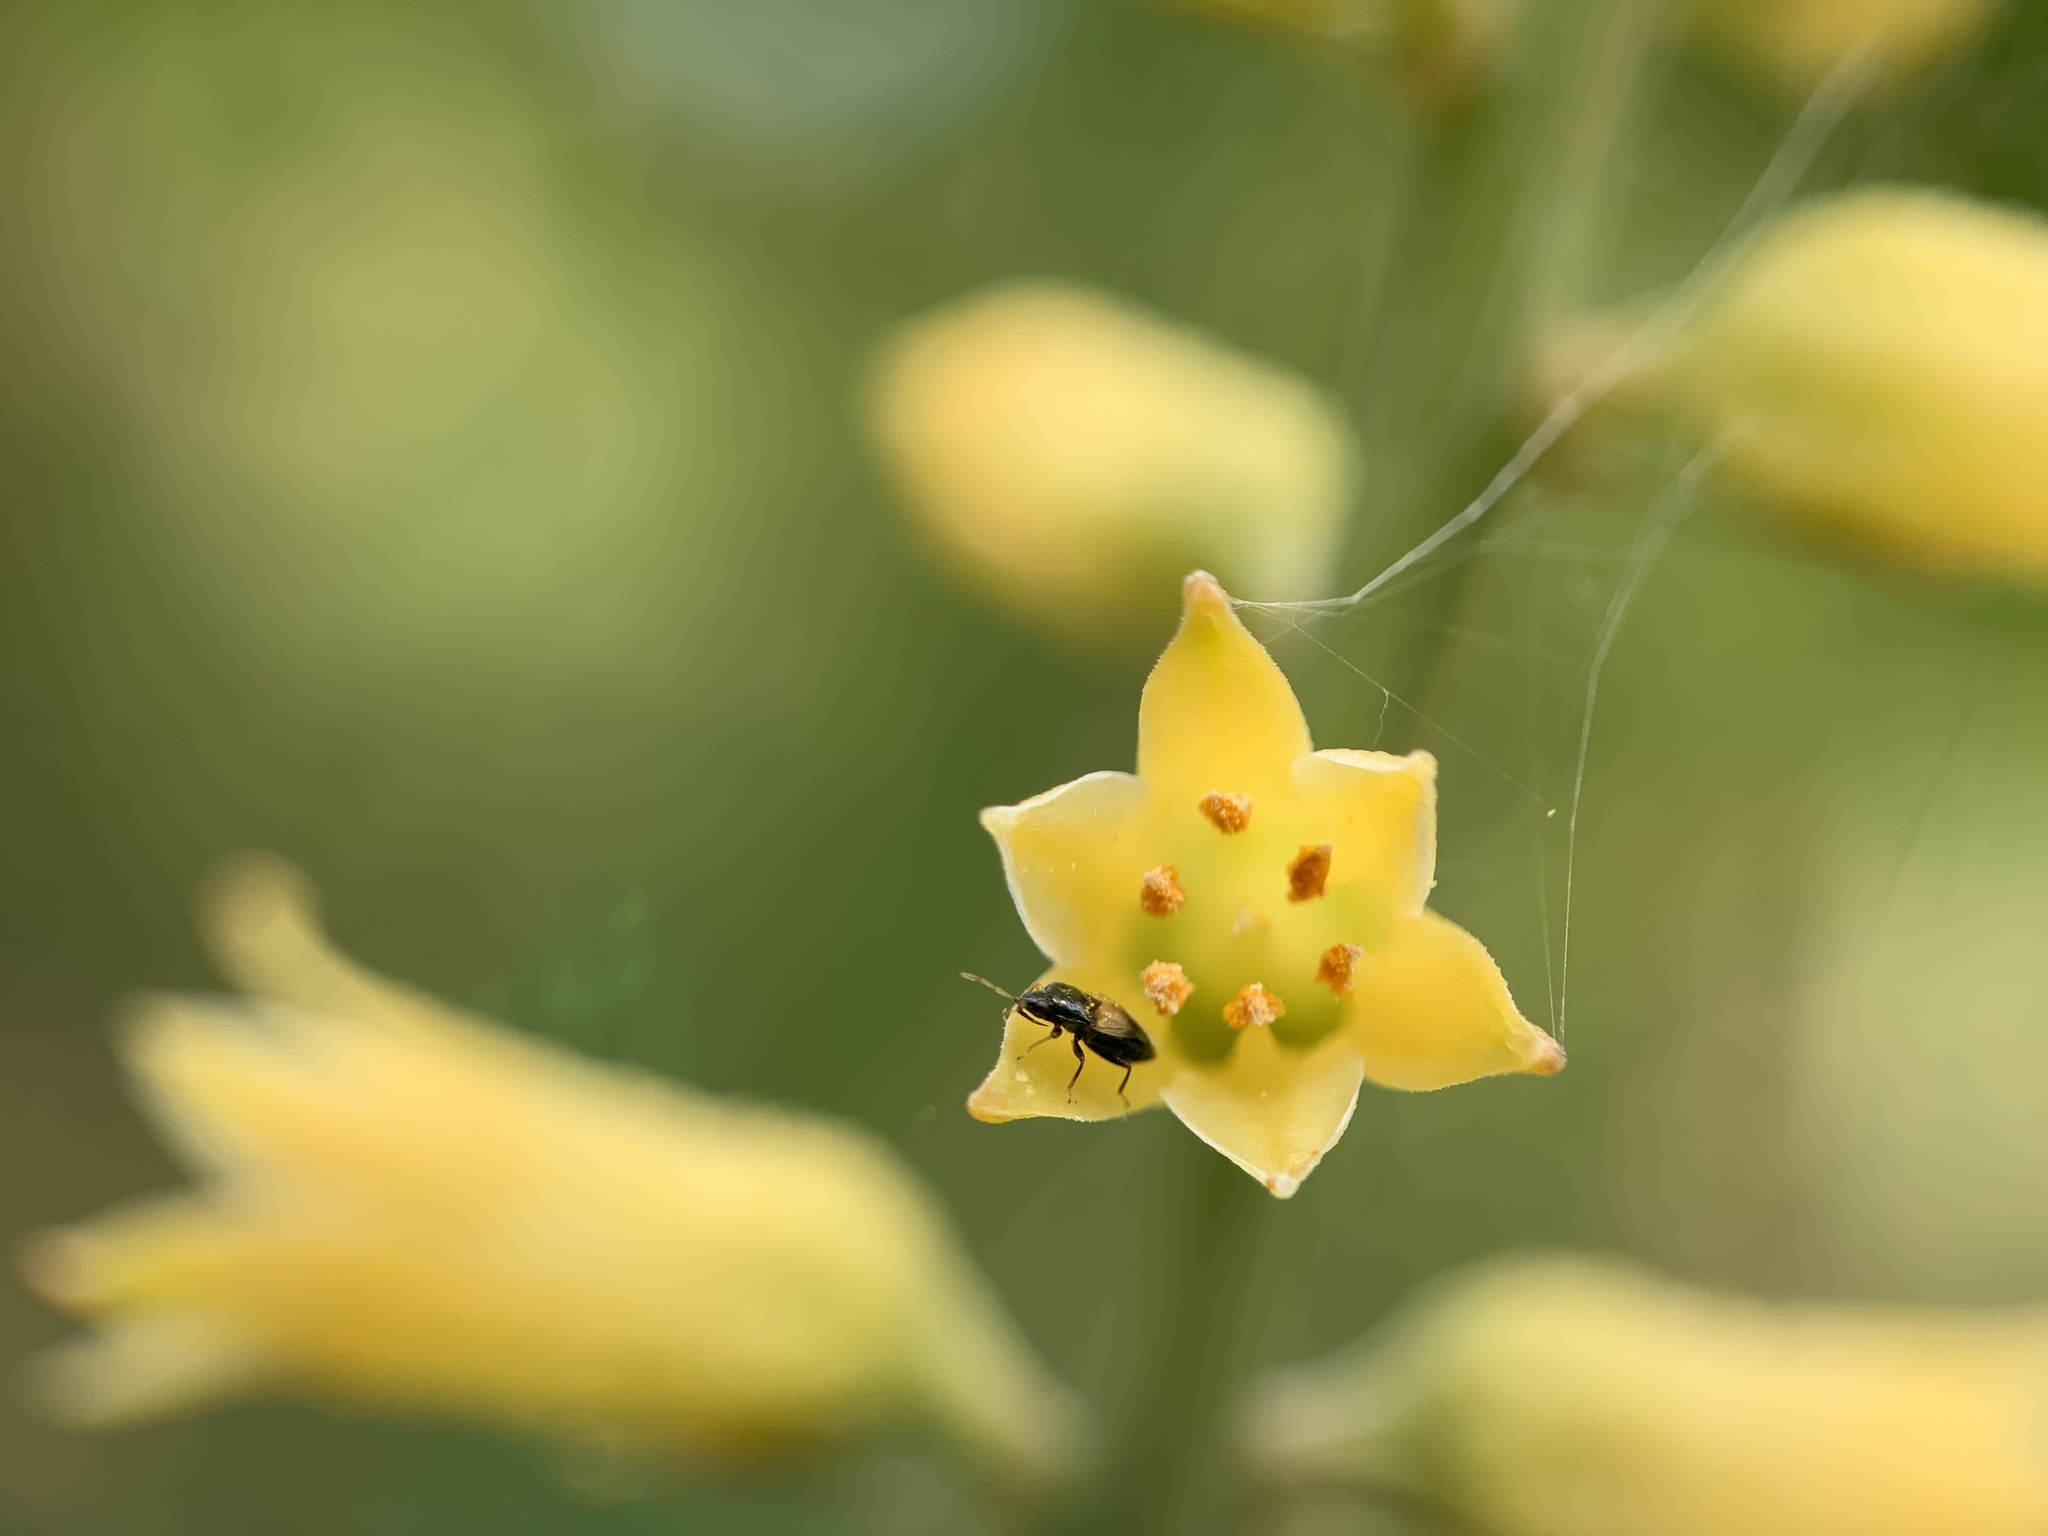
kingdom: Plantae
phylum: Tracheophyta
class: Liliopsida
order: Dioscoreales
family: Nartheciaceae
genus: Aletris
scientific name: Aletris lutea
